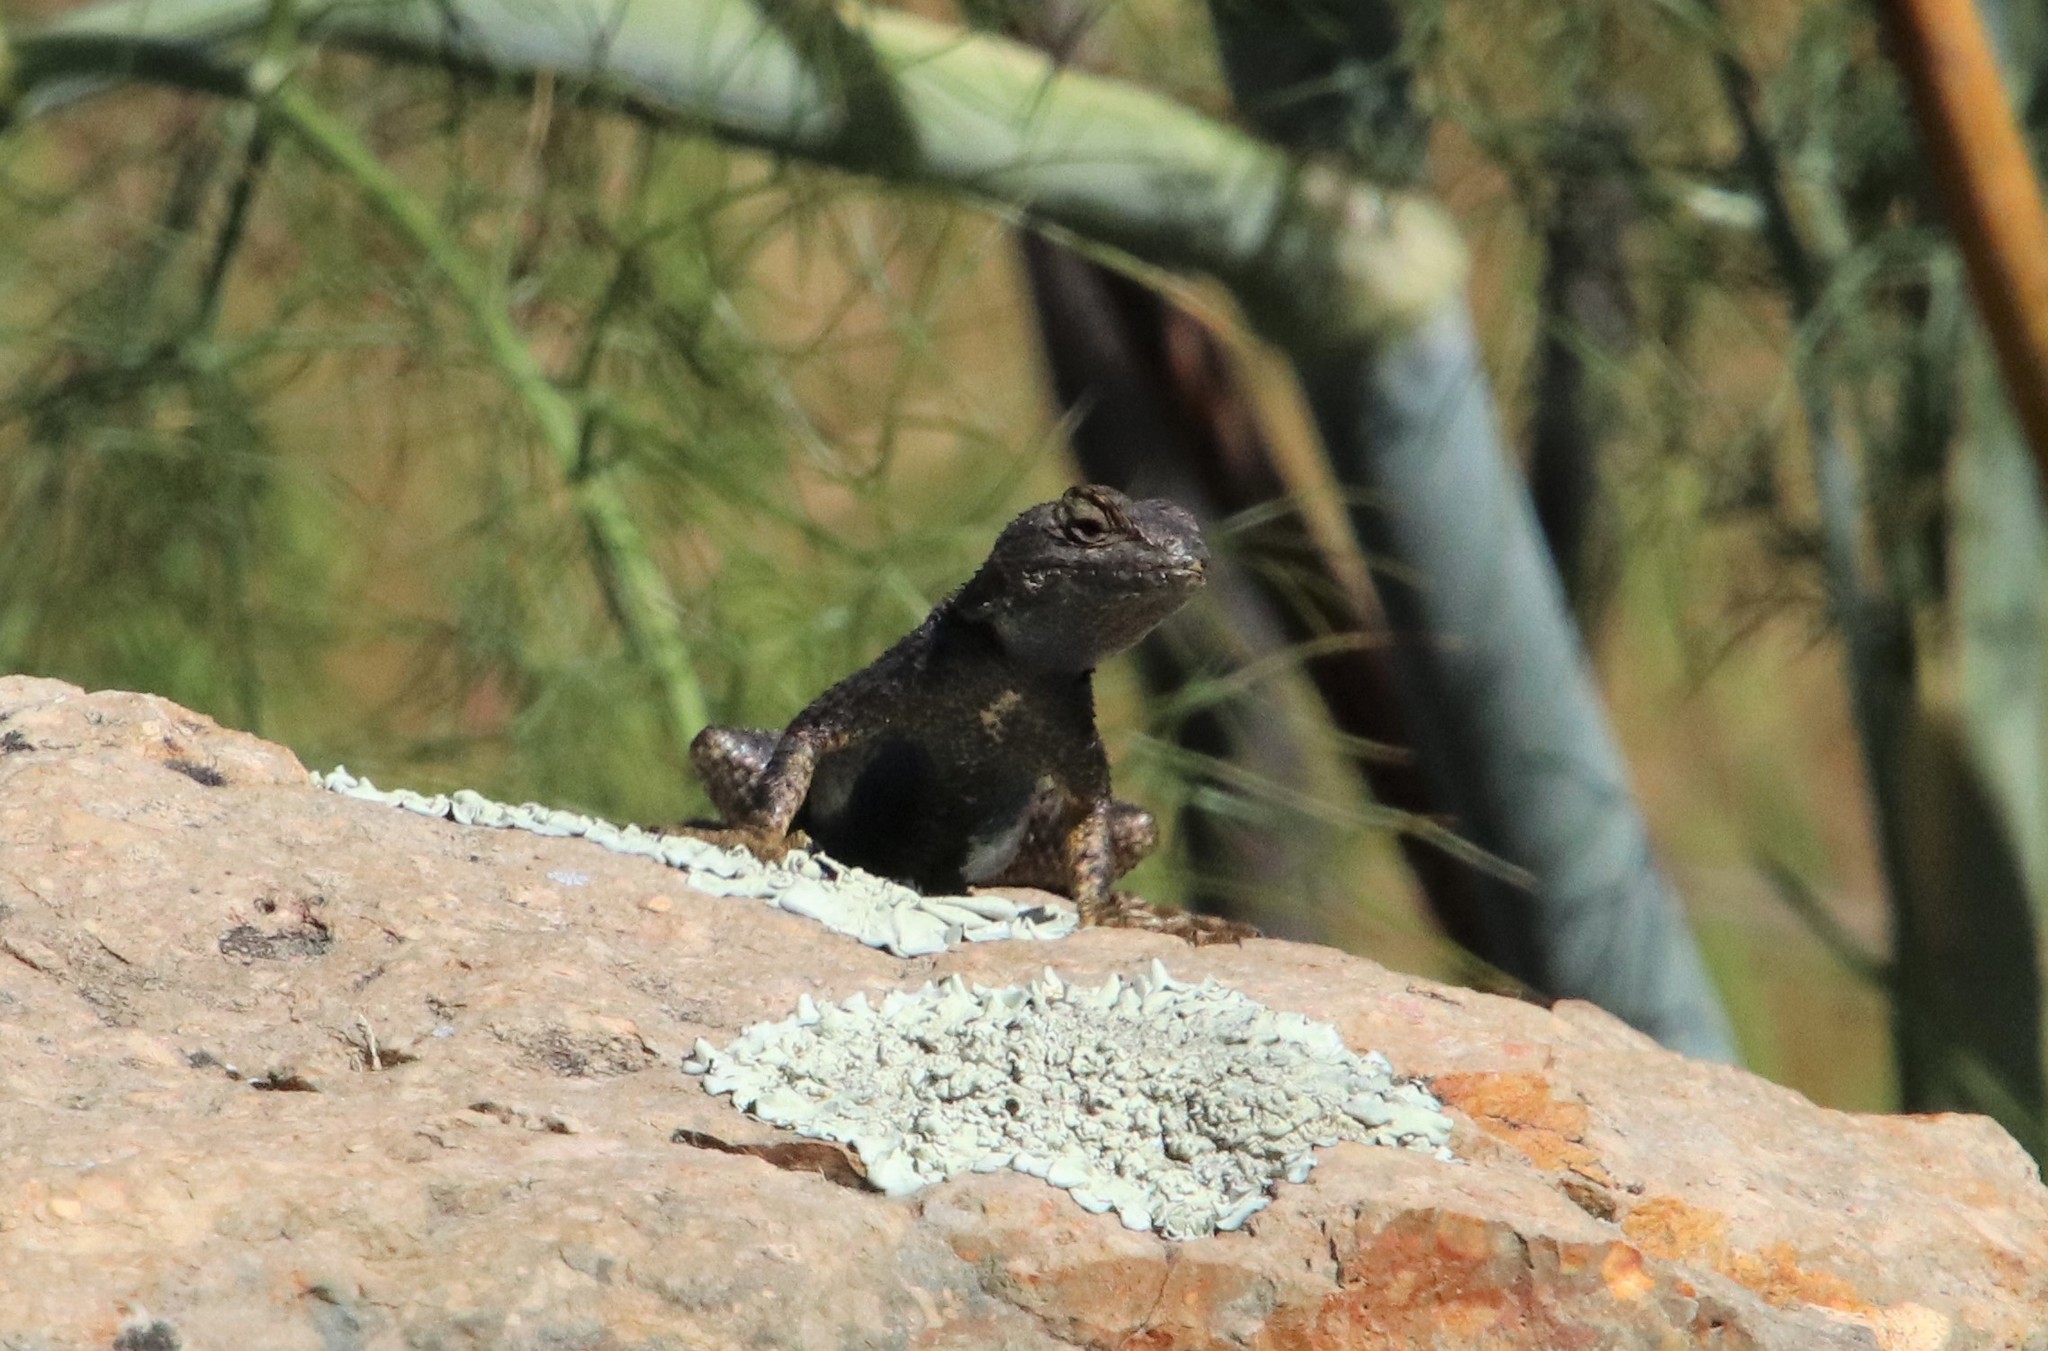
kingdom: Animalia
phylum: Chordata
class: Squamata
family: Phrynosomatidae
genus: Sceloporus
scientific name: Sceloporus occidentalis
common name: Western fence lizard
